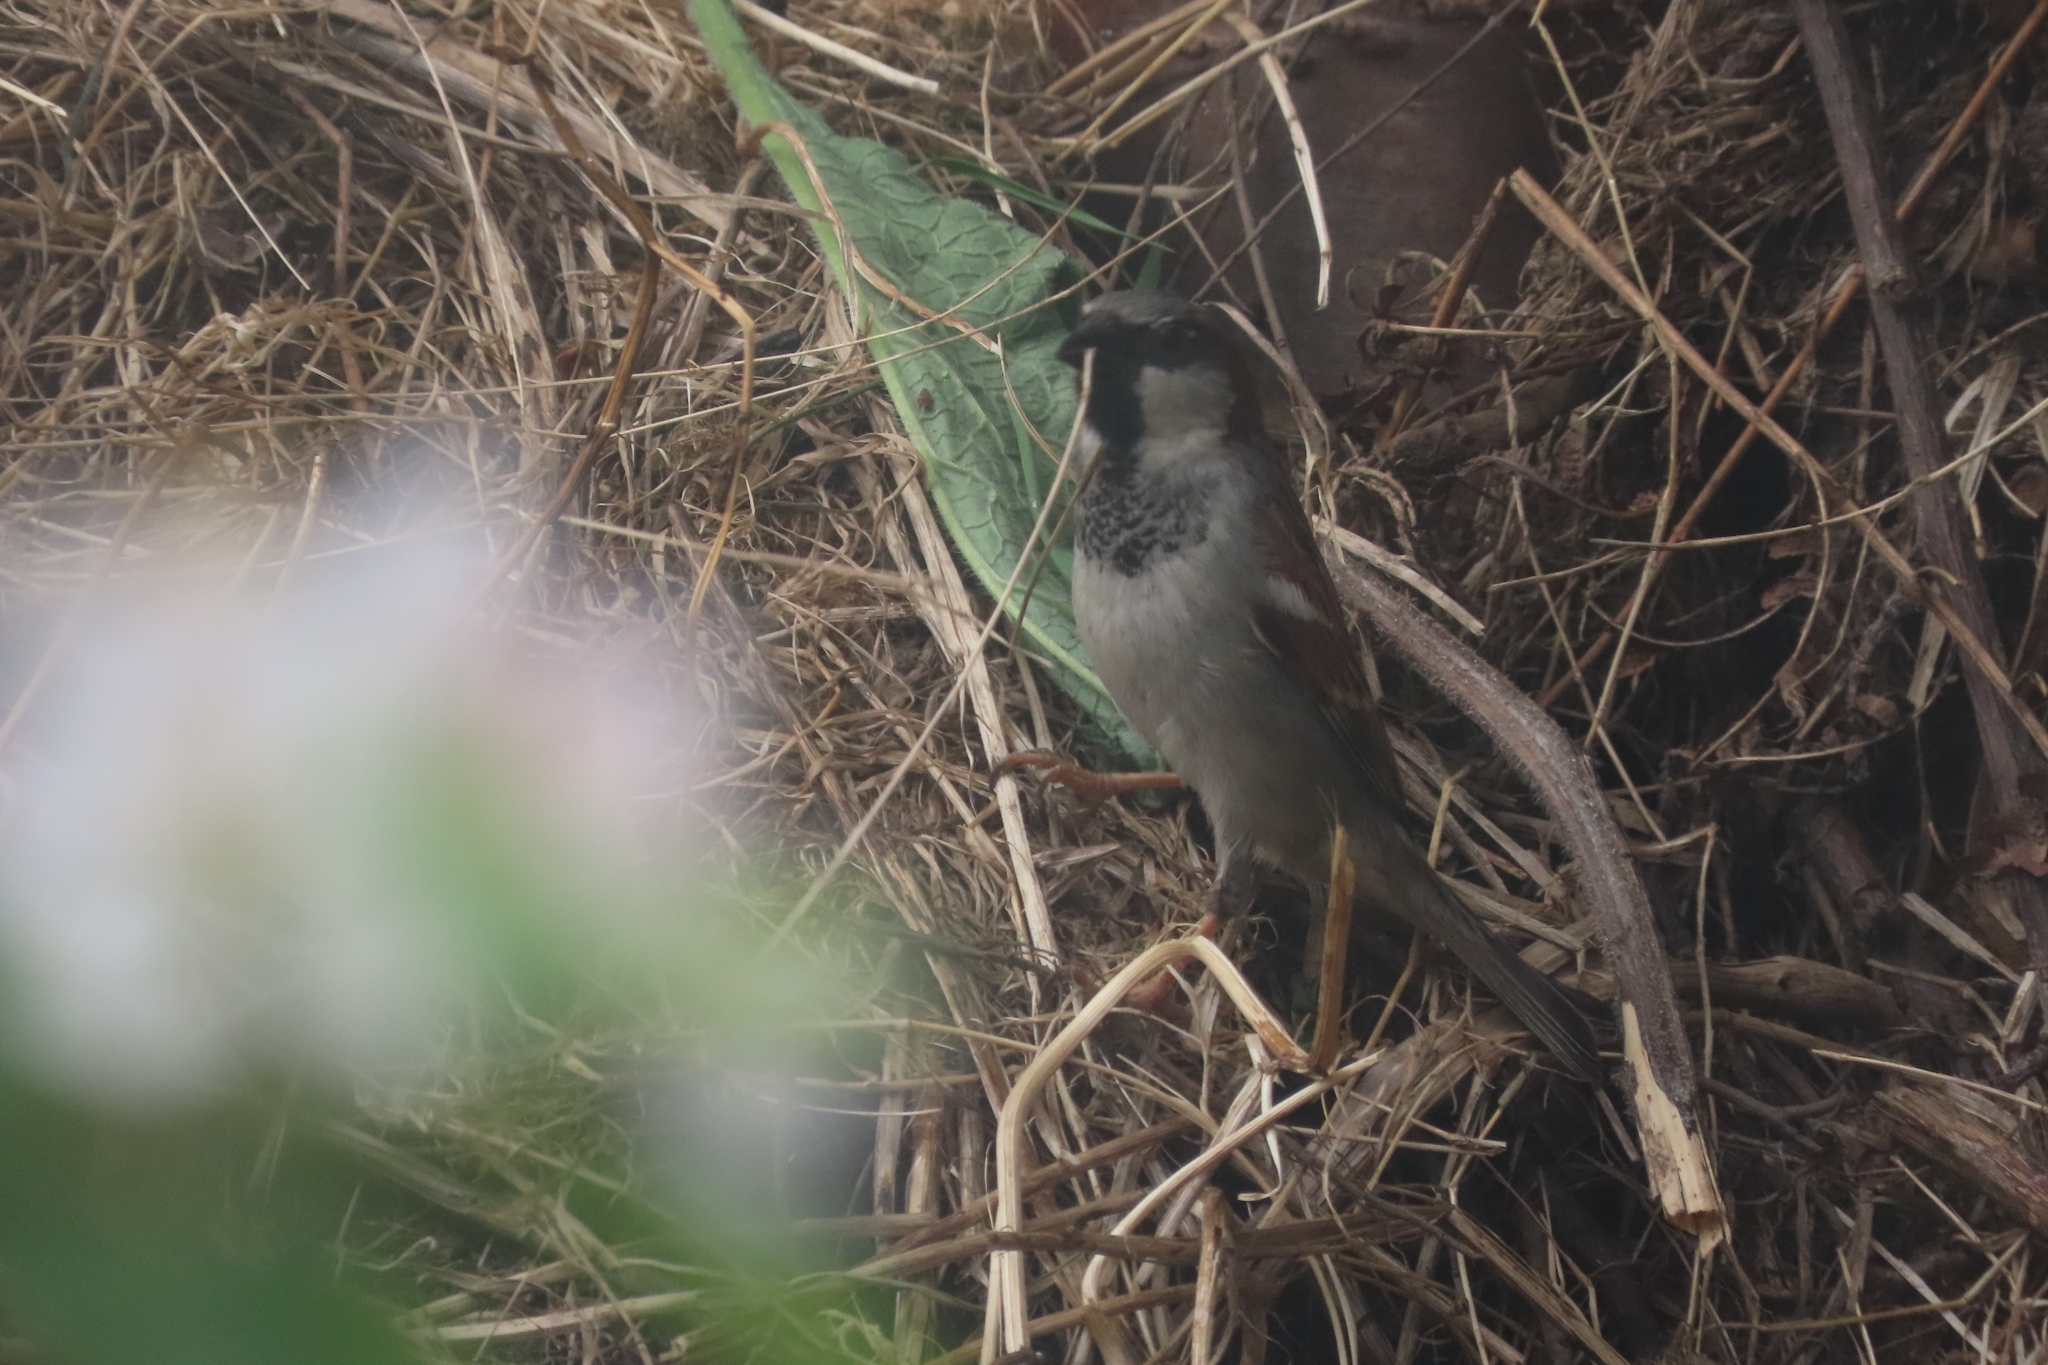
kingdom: Animalia
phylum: Chordata
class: Aves
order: Passeriformes
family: Passeridae
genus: Passer
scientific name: Passer domesticus
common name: House sparrow
